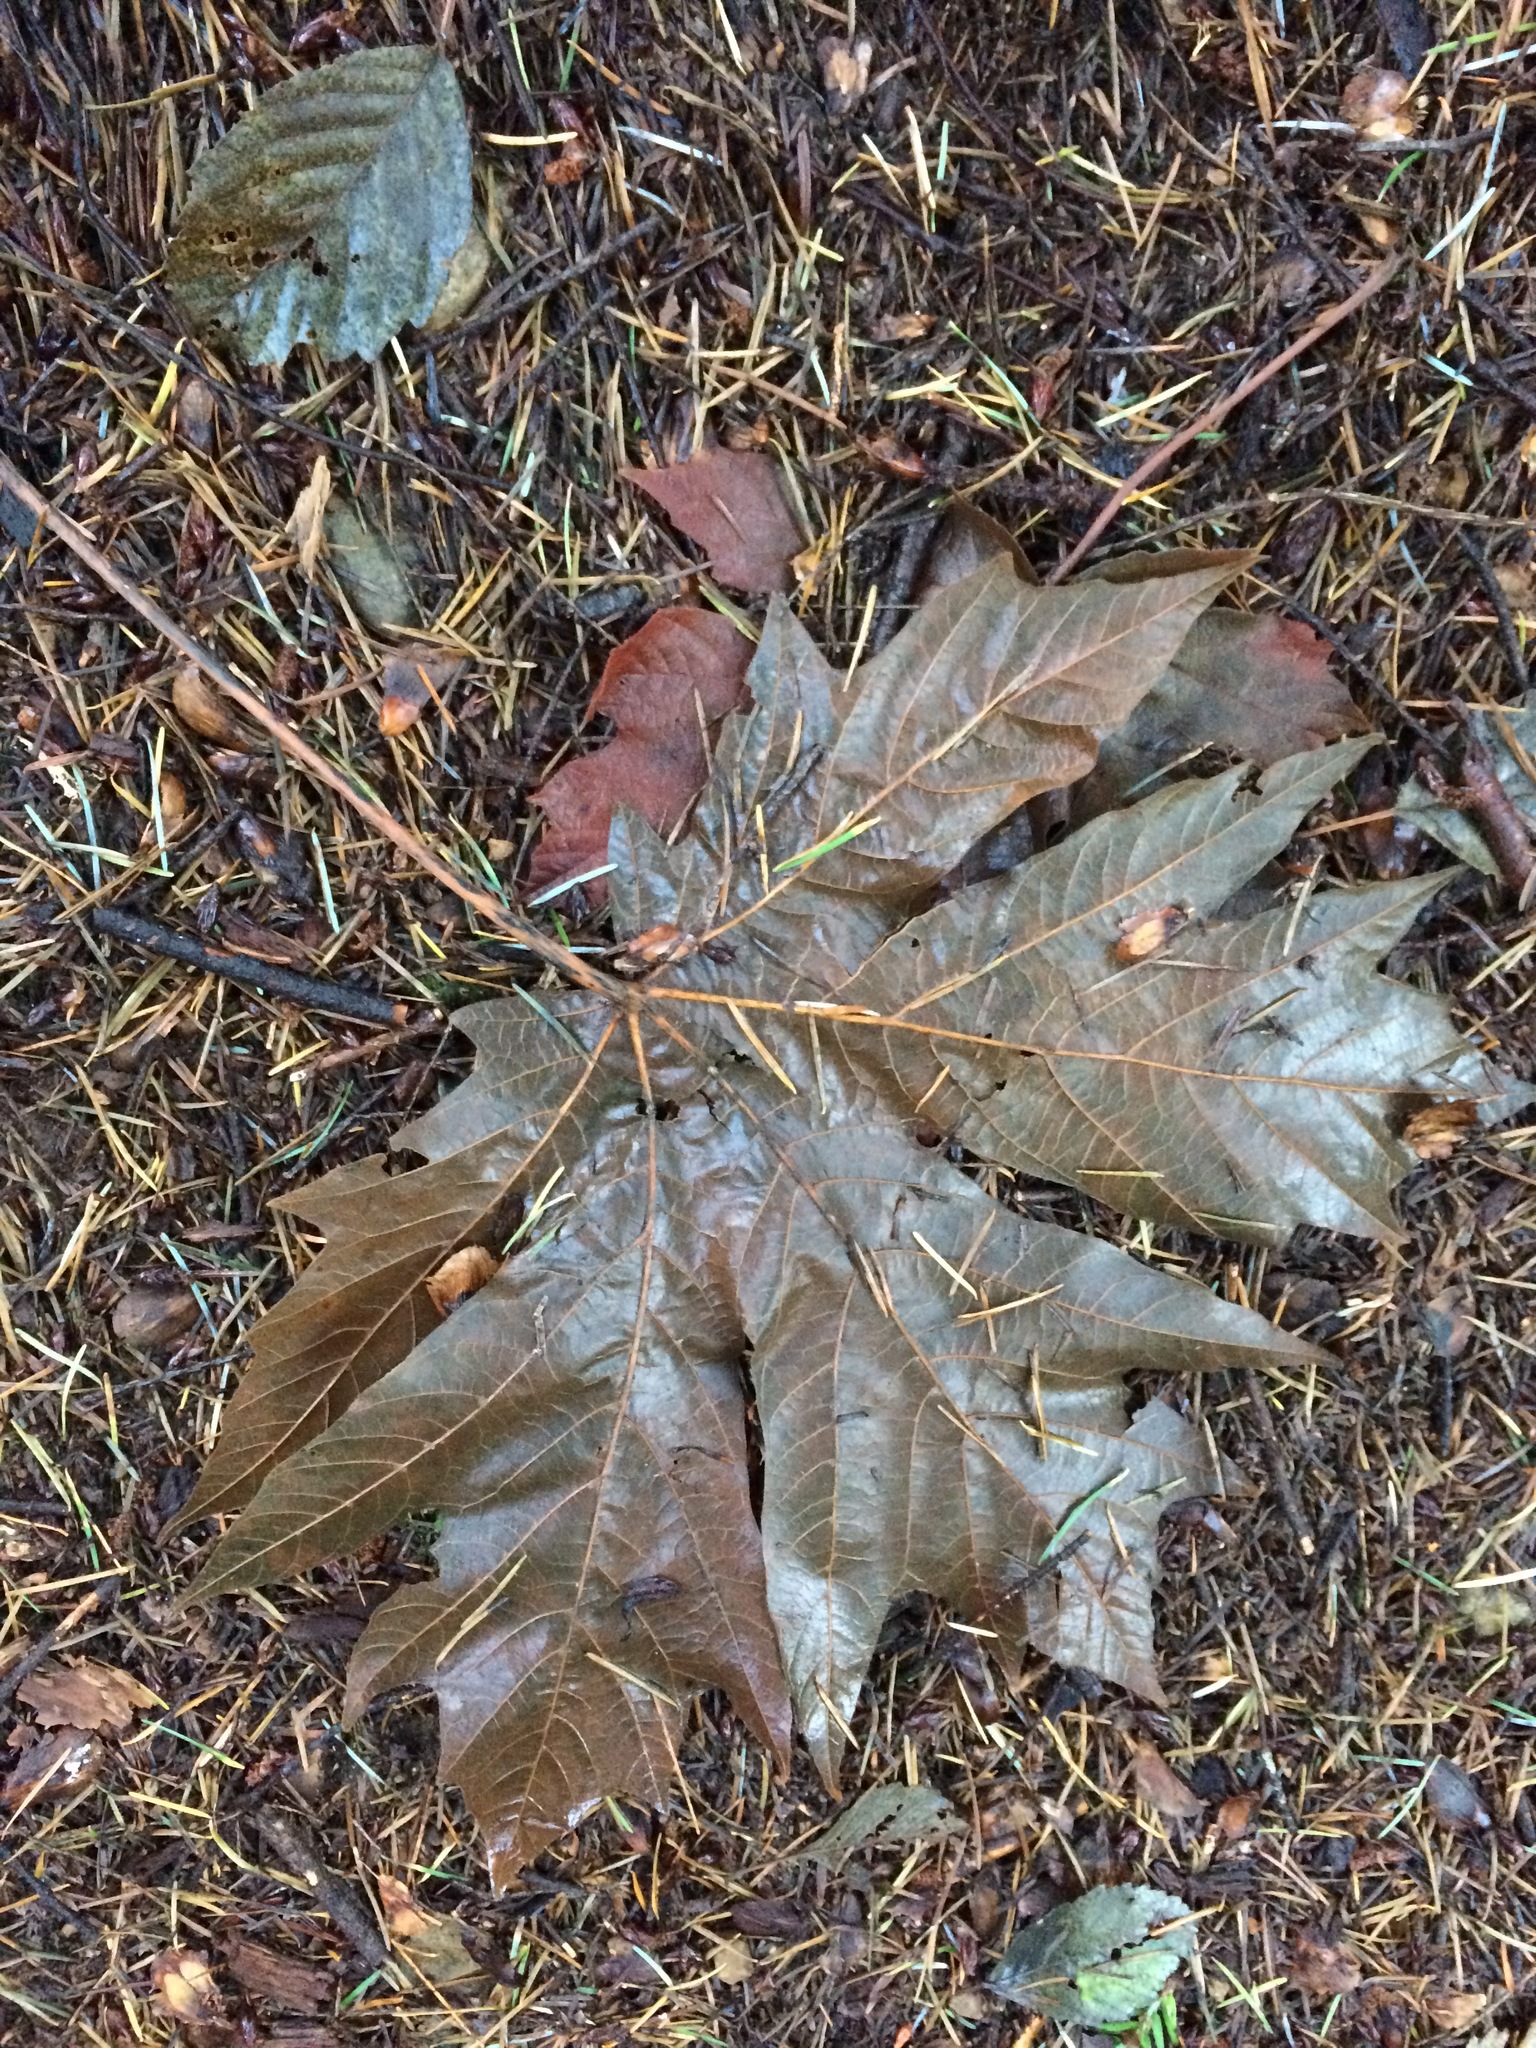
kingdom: Plantae
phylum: Tracheophyta
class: Magnoliopsida
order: Sapindales
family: Sapindaceae
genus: Acer
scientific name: Acer macrophyllum
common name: Oregon maple
